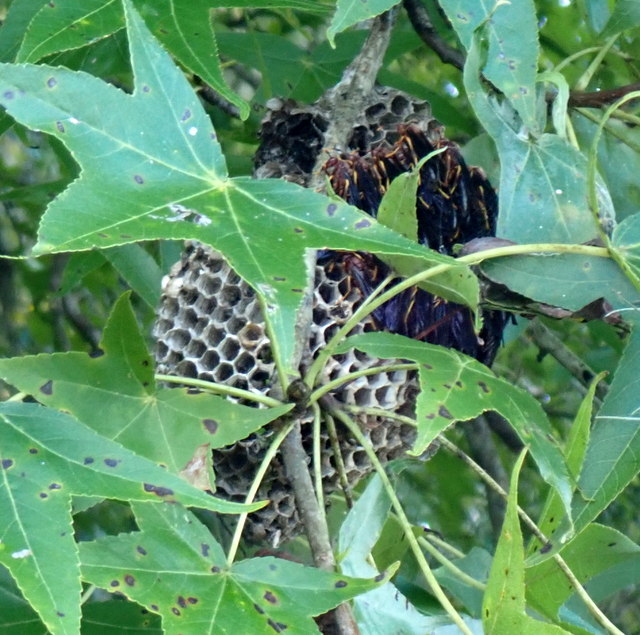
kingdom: Animalia
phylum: Arthropoda
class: Insecta
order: Hymenoptera
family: Eumenidae
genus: Polistes
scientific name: Polistes annularis
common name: Ringed paper wasp
